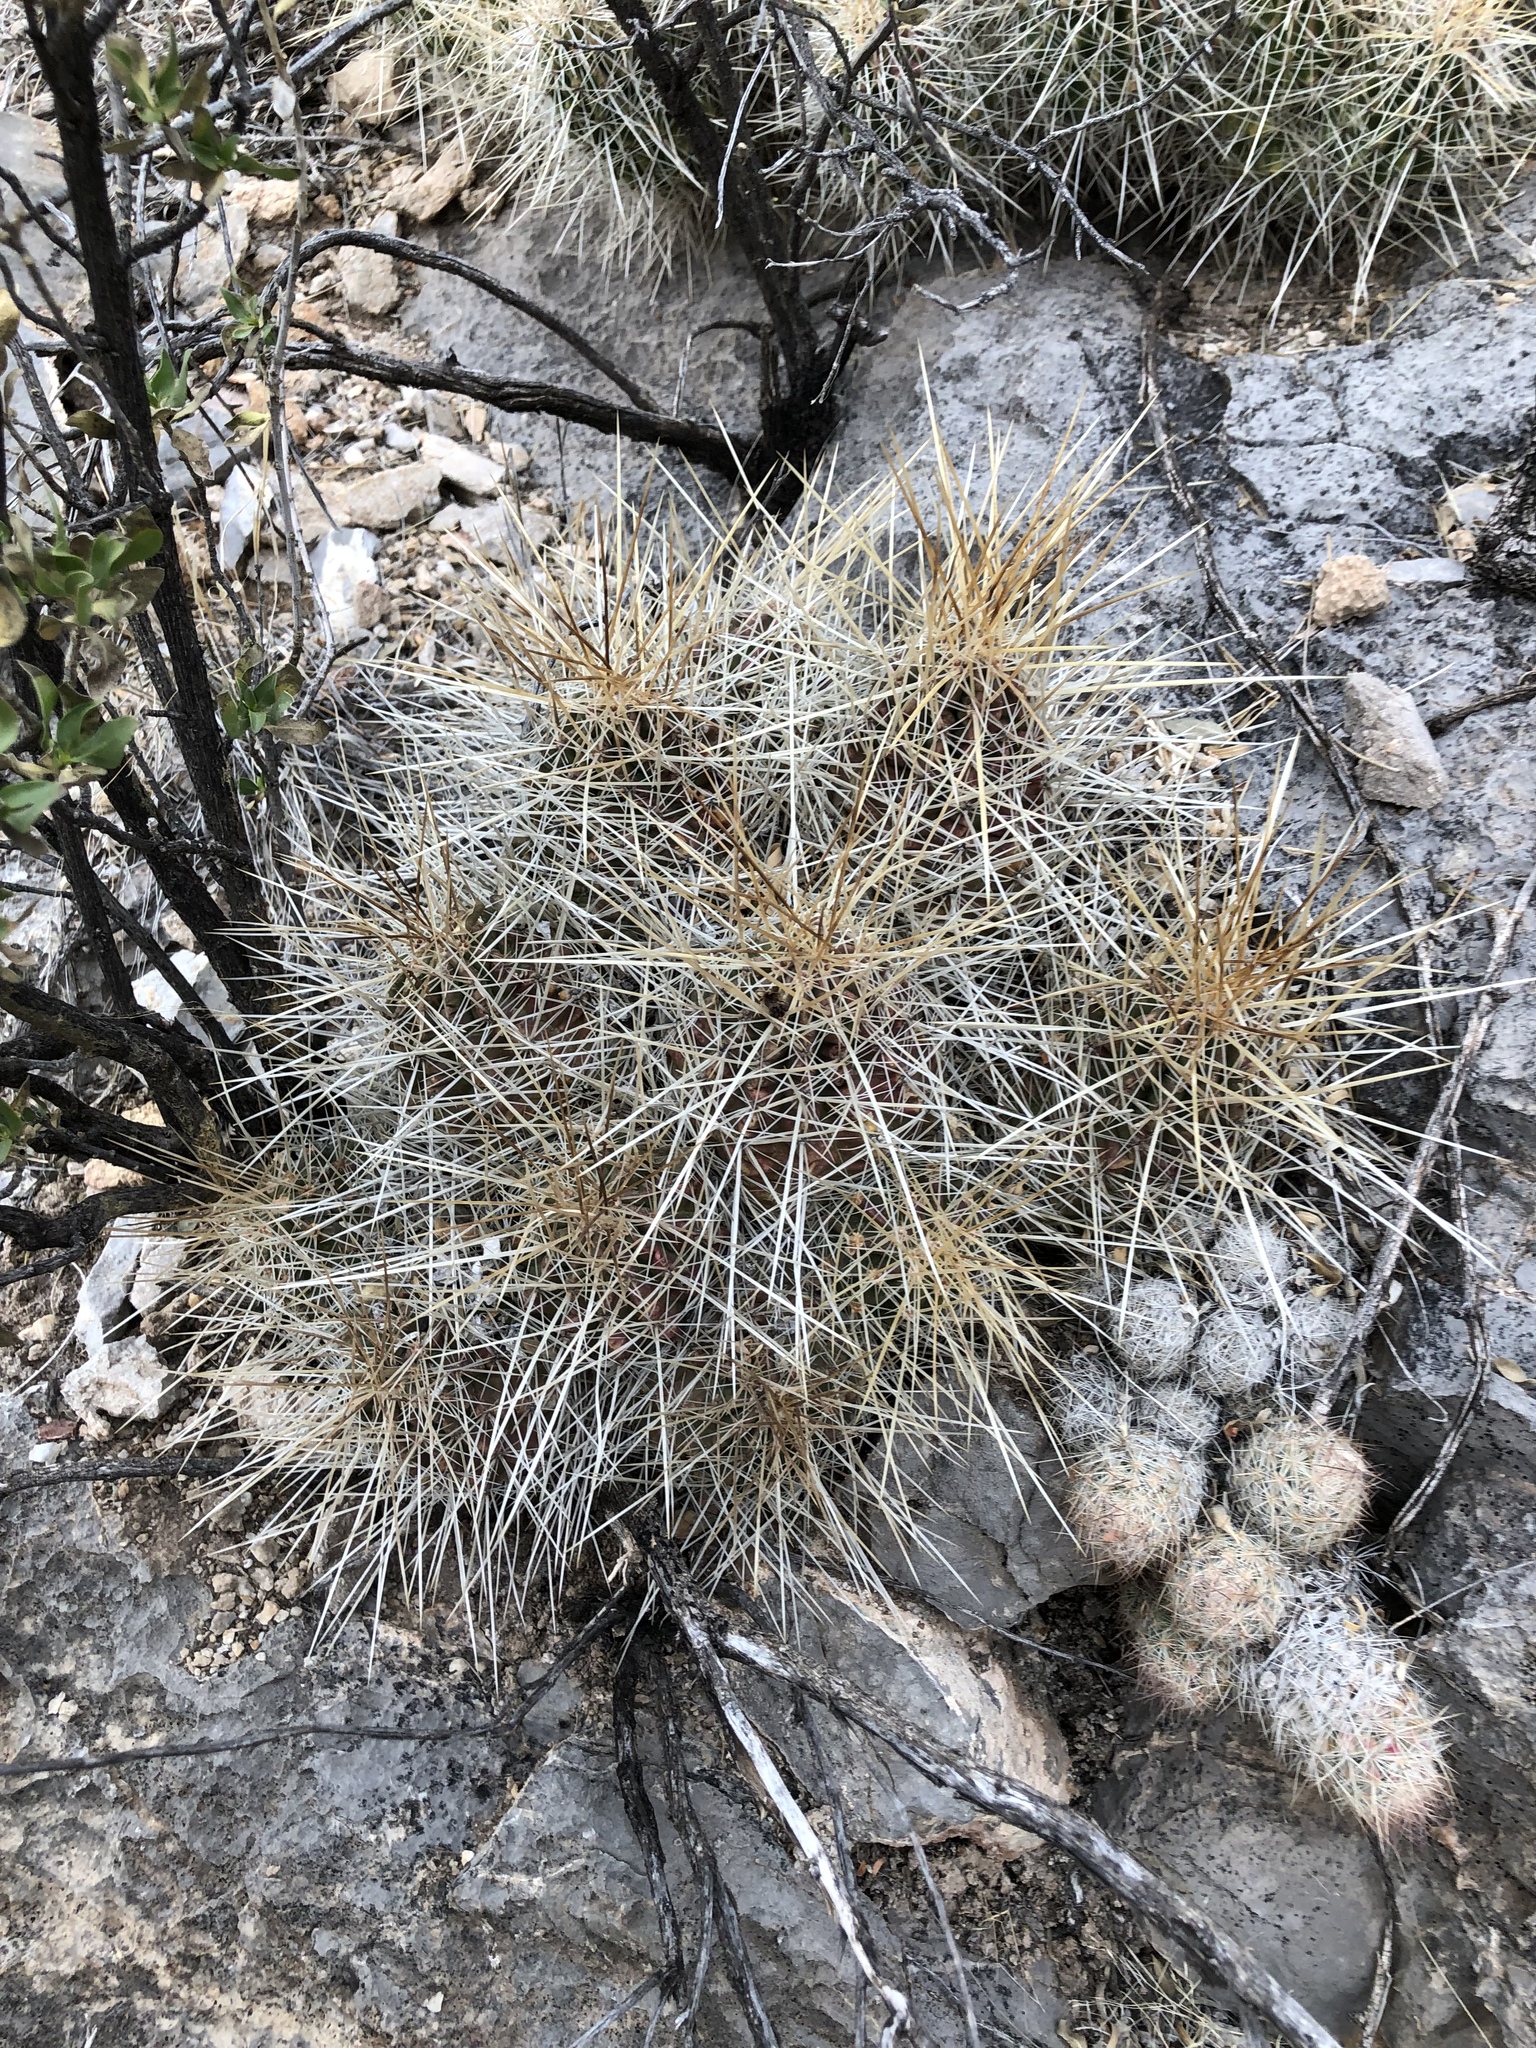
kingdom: Plantae
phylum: Tracheophyta
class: Magnoliopsida
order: Caryophyllales
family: Cactaceae
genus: Echinocereus
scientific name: Echinocereus stramineus
